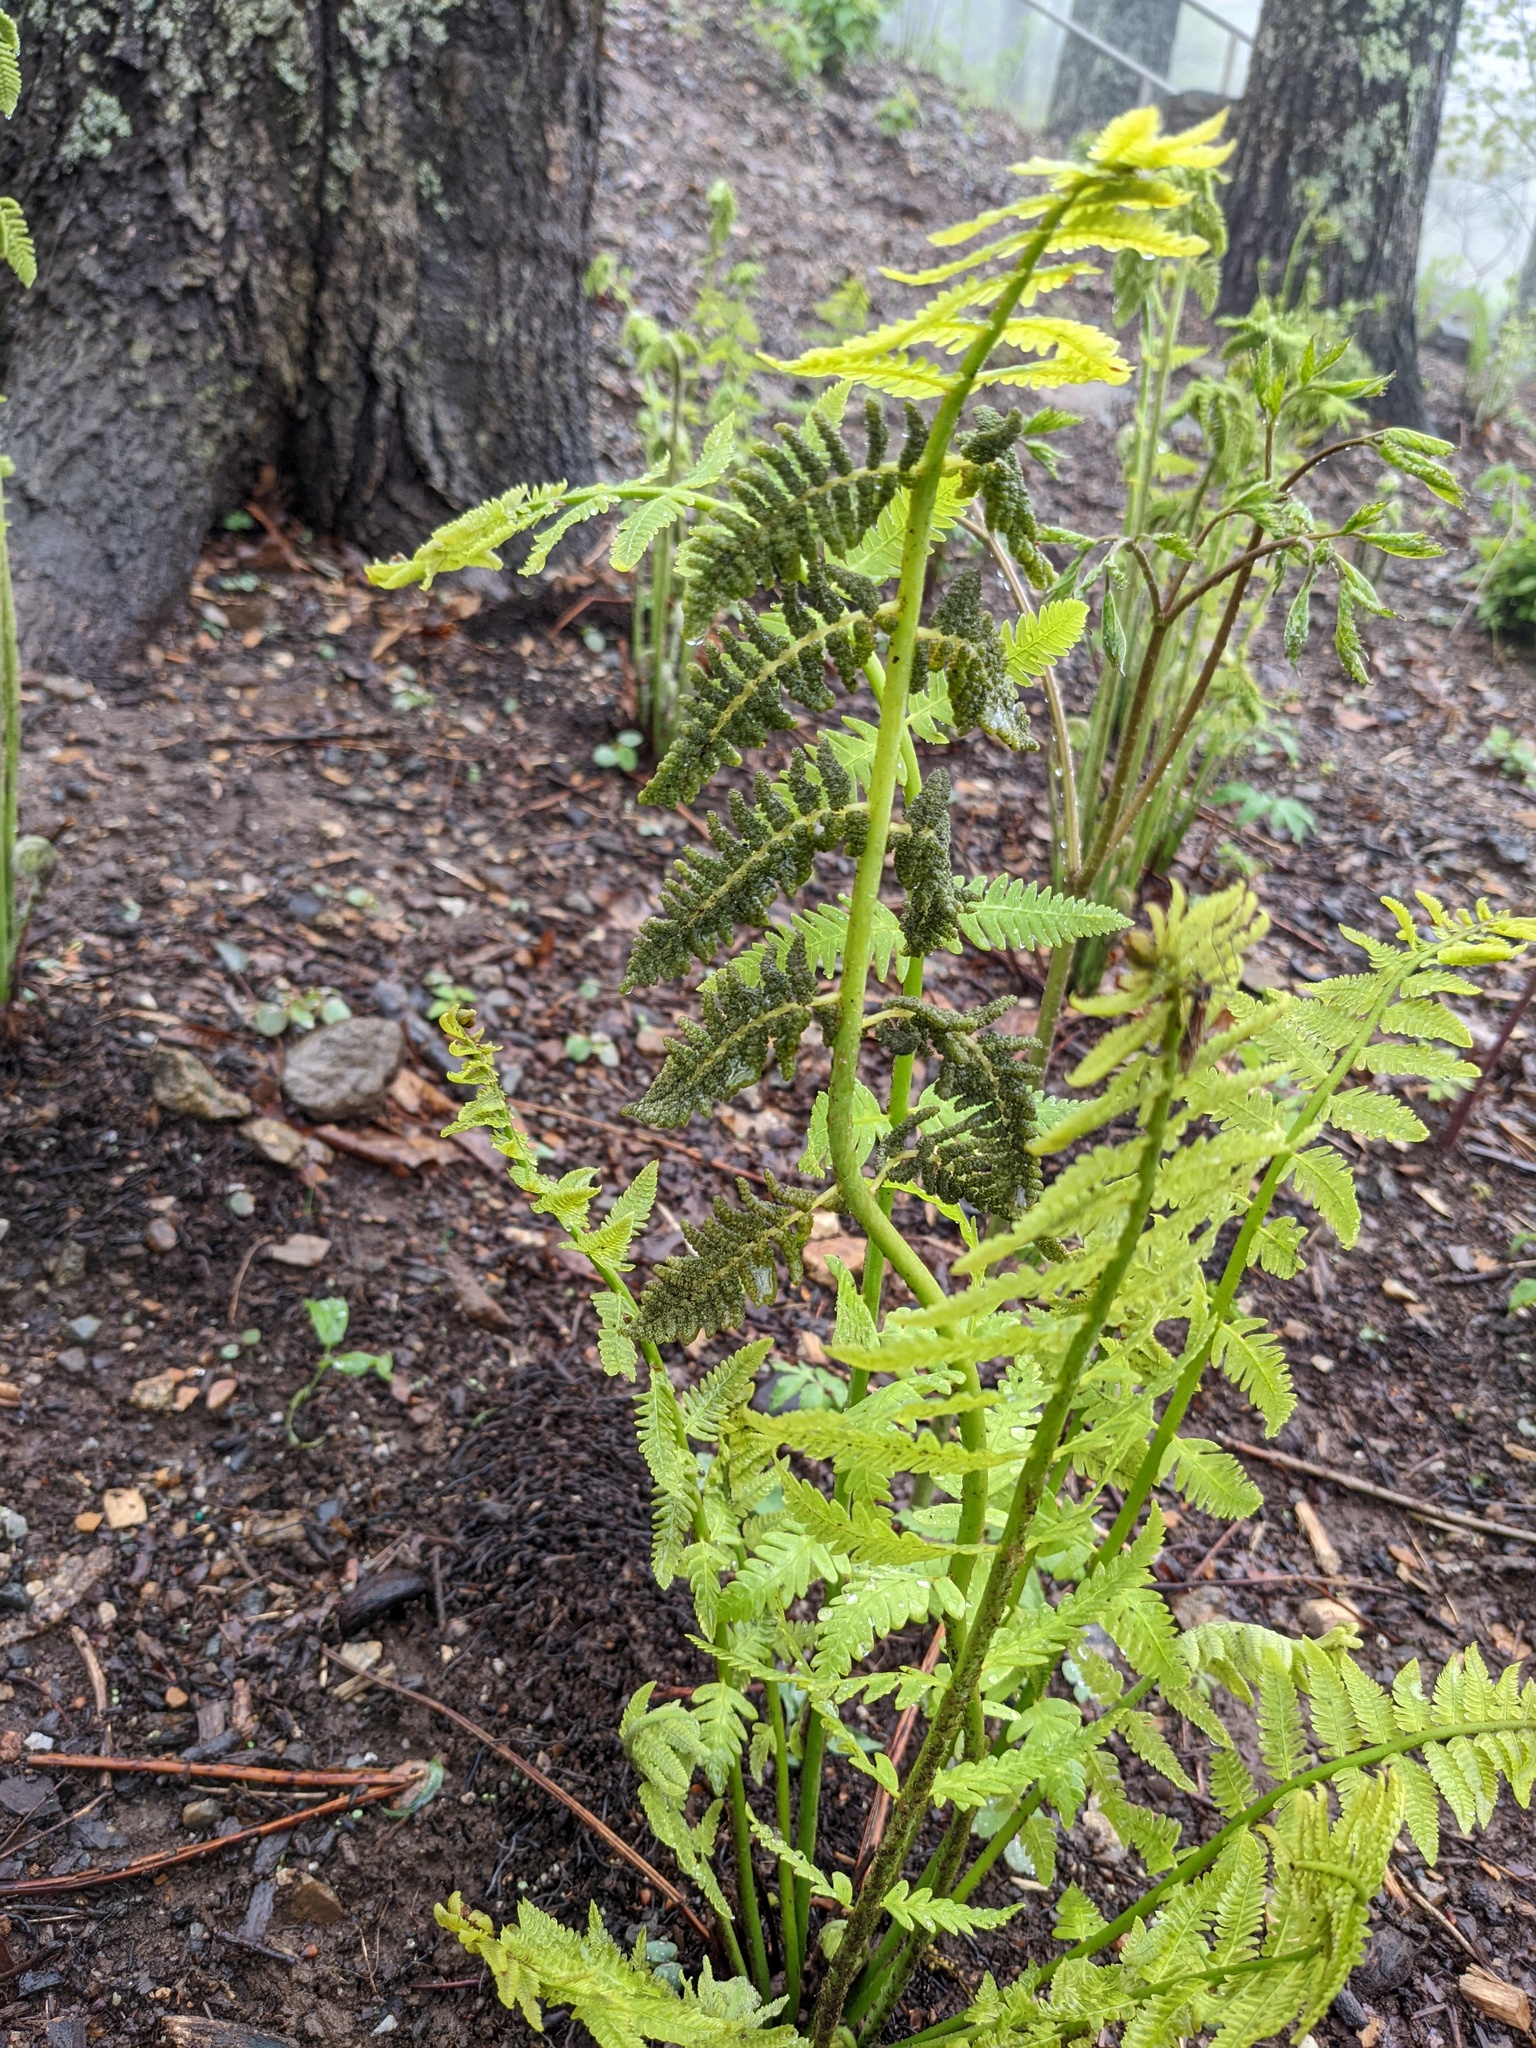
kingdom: Plantae
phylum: Tracheophyta
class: Polypodiopsida
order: Osmundales
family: Osmundaceae
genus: Claytosmunda
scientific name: Claytosmunda claytoniana
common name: Clayton's fern
